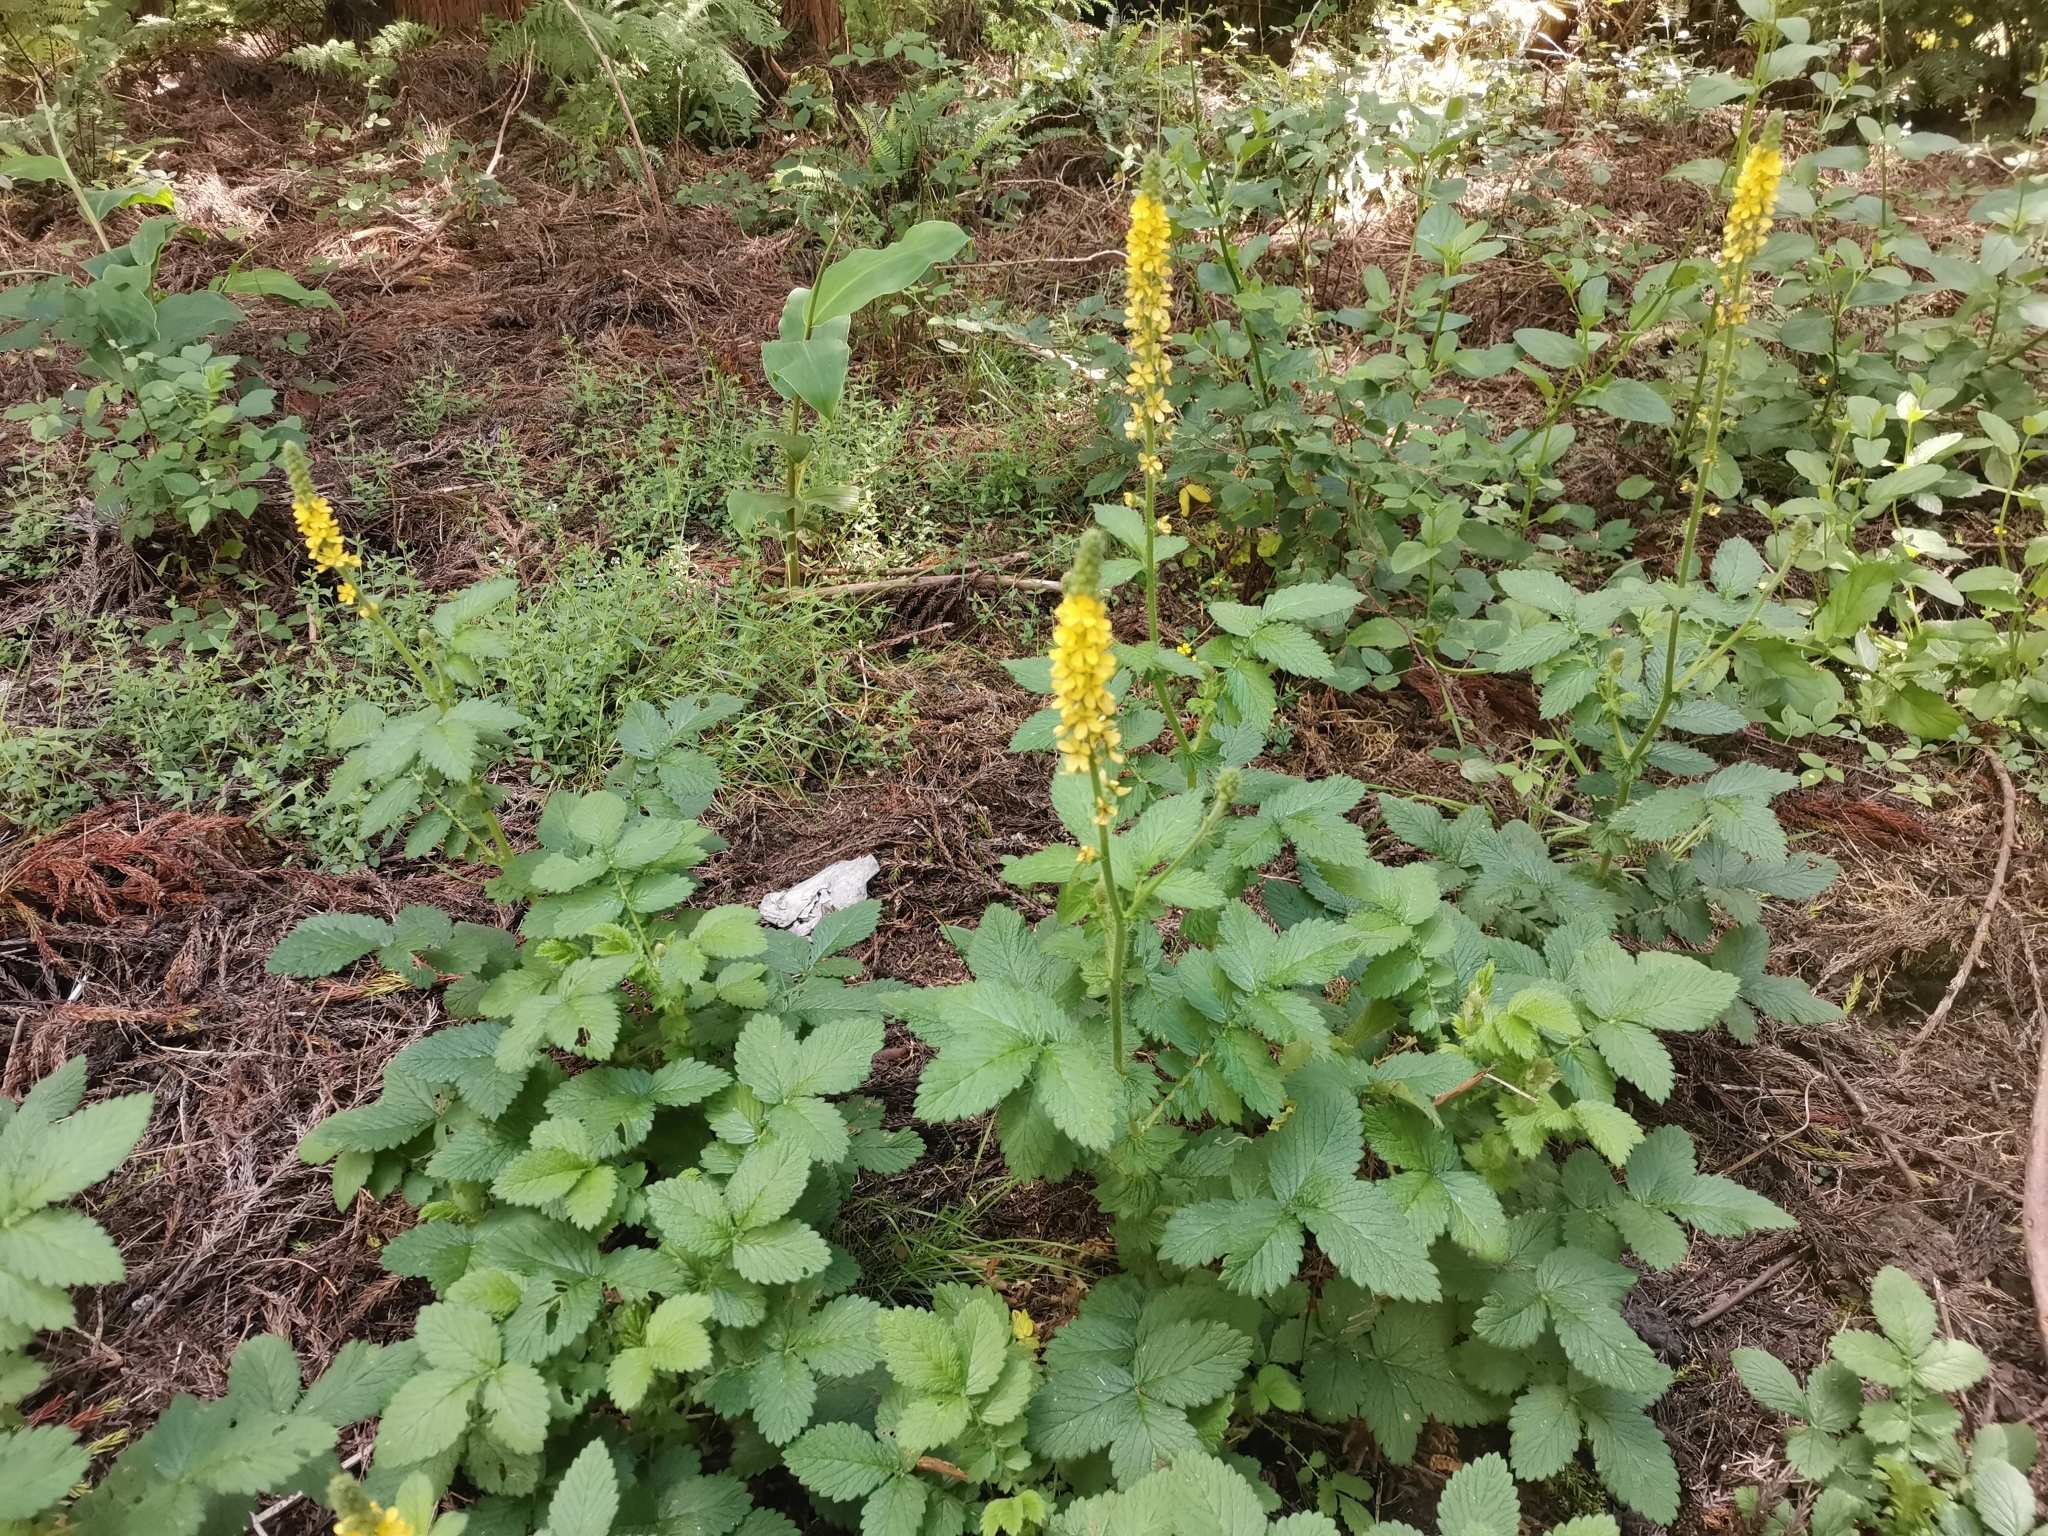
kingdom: Plantae
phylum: Tracheophyta
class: Magnoliopsida
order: Rosales
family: Rosaceae
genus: Agrimonia
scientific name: Agrimonia eupatoria
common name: Agrimony
